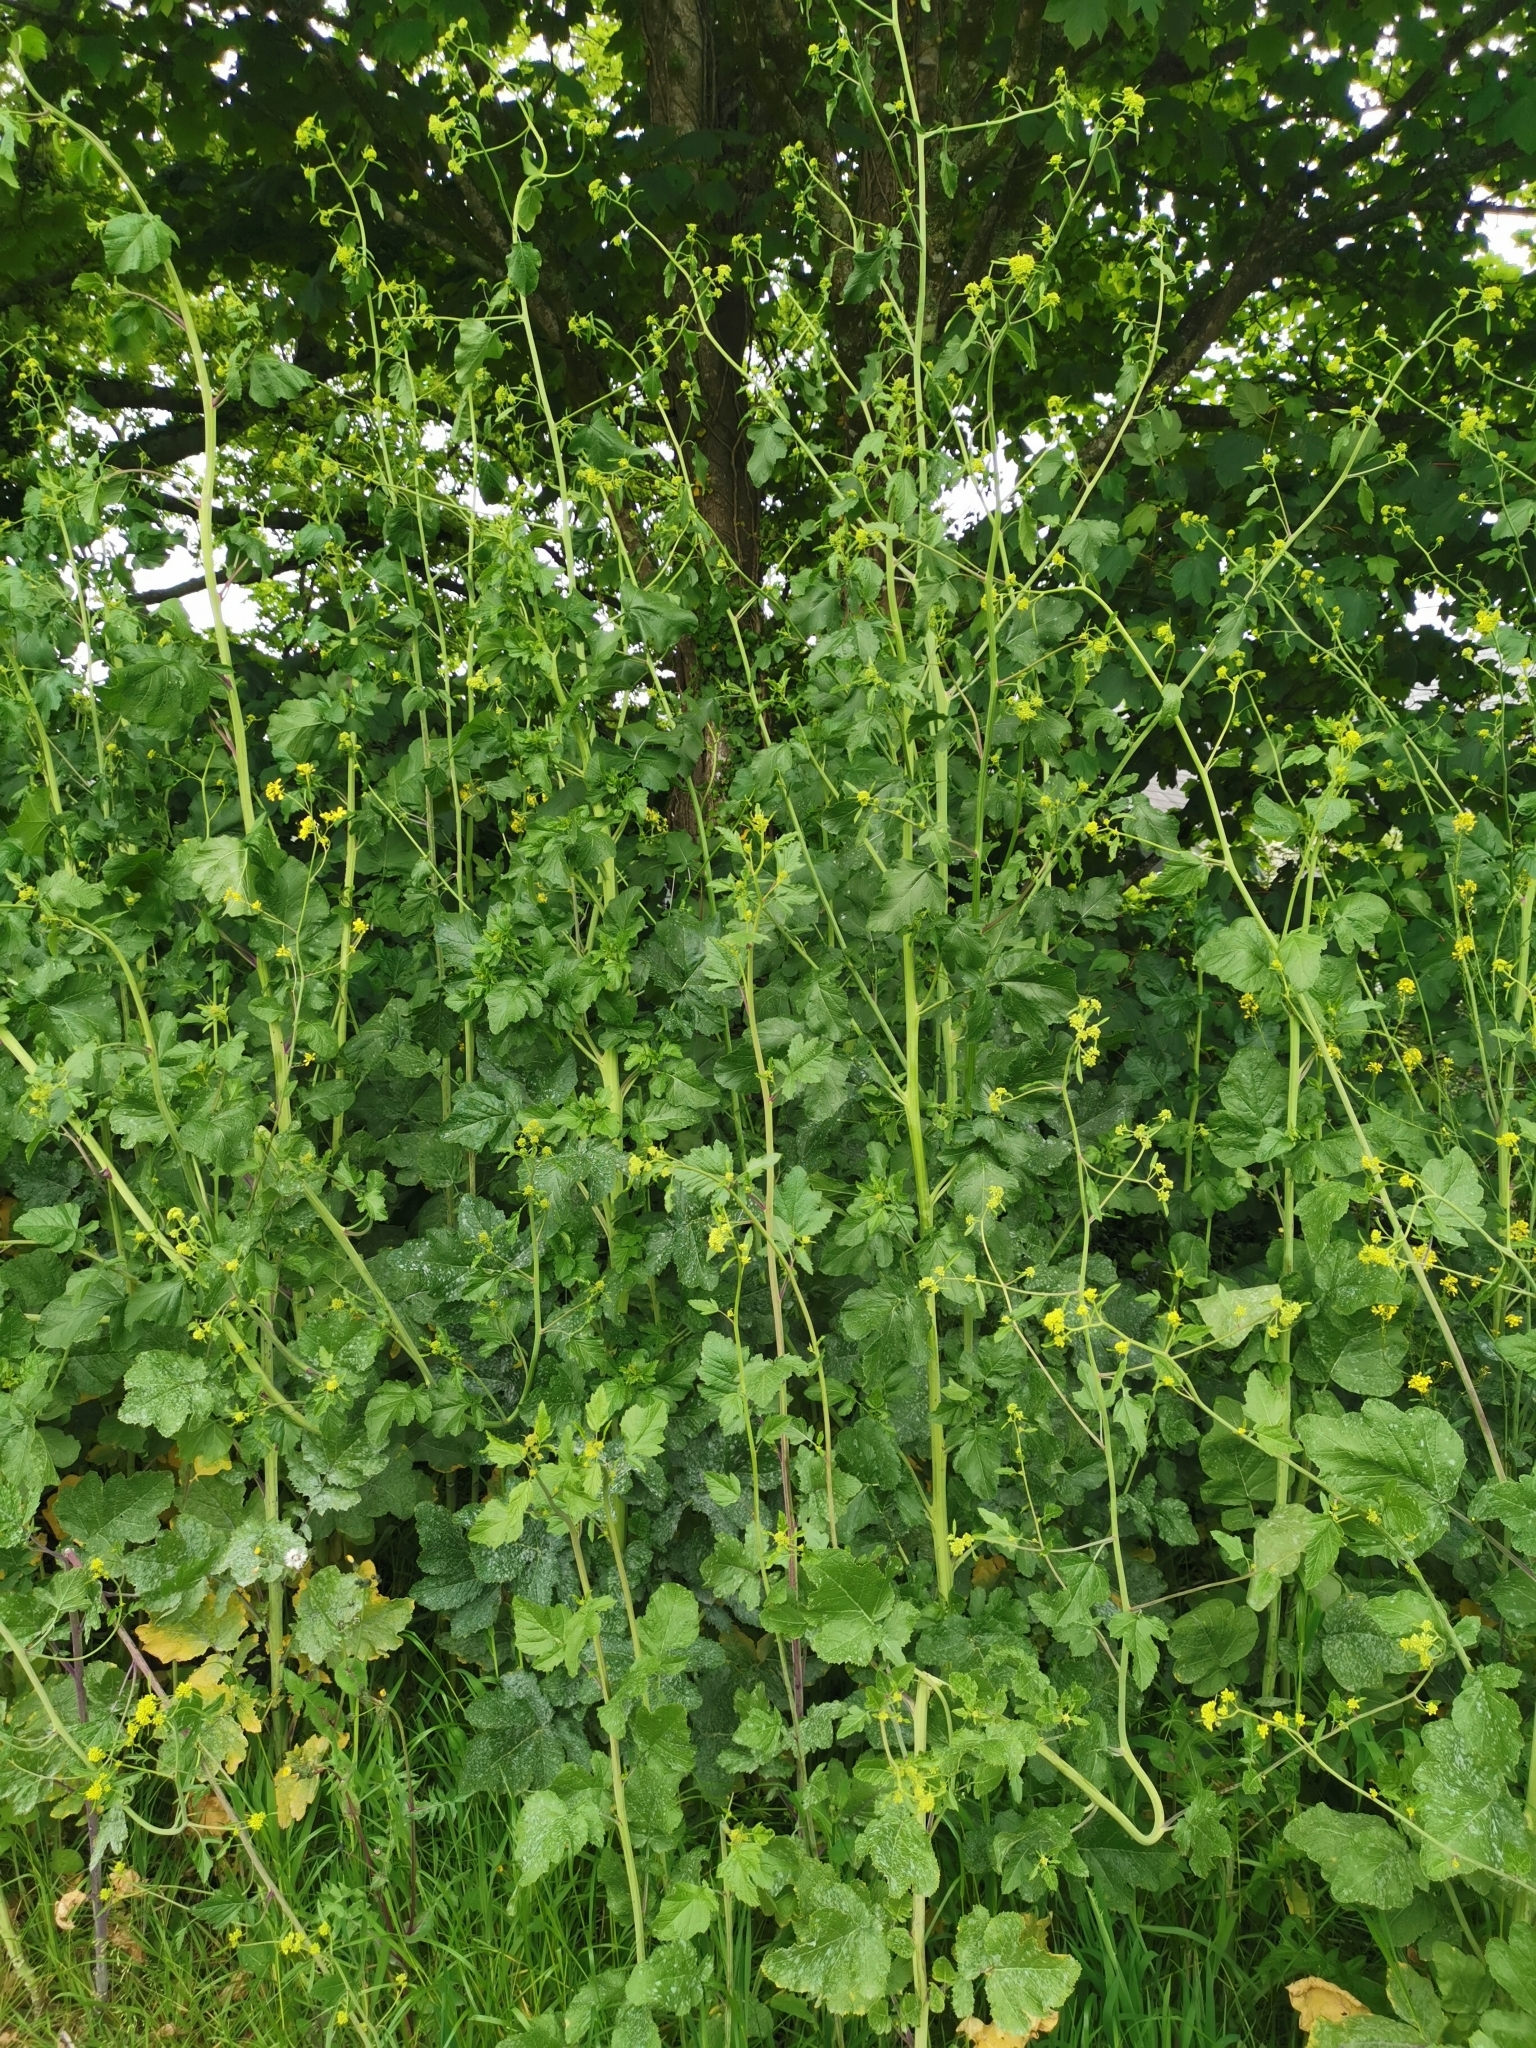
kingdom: Plantae
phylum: Tracheophyta
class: Magnoliopsida
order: Brassicales
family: Brassicaceae
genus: Brassica
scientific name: Brassica nigra
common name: Black mustard
